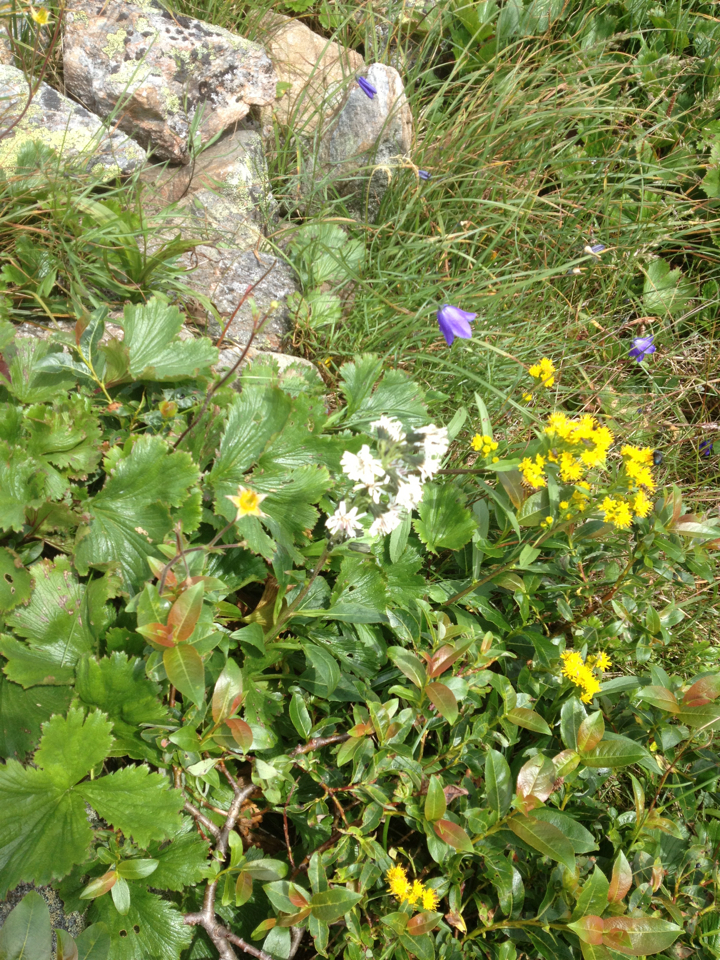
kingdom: Plantae
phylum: Tracheophyta
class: Magnoliopsida
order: Asterales
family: Asteraceae
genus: Nabalus
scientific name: Nabalus boottii
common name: Boot’s rattlesnakeroot
